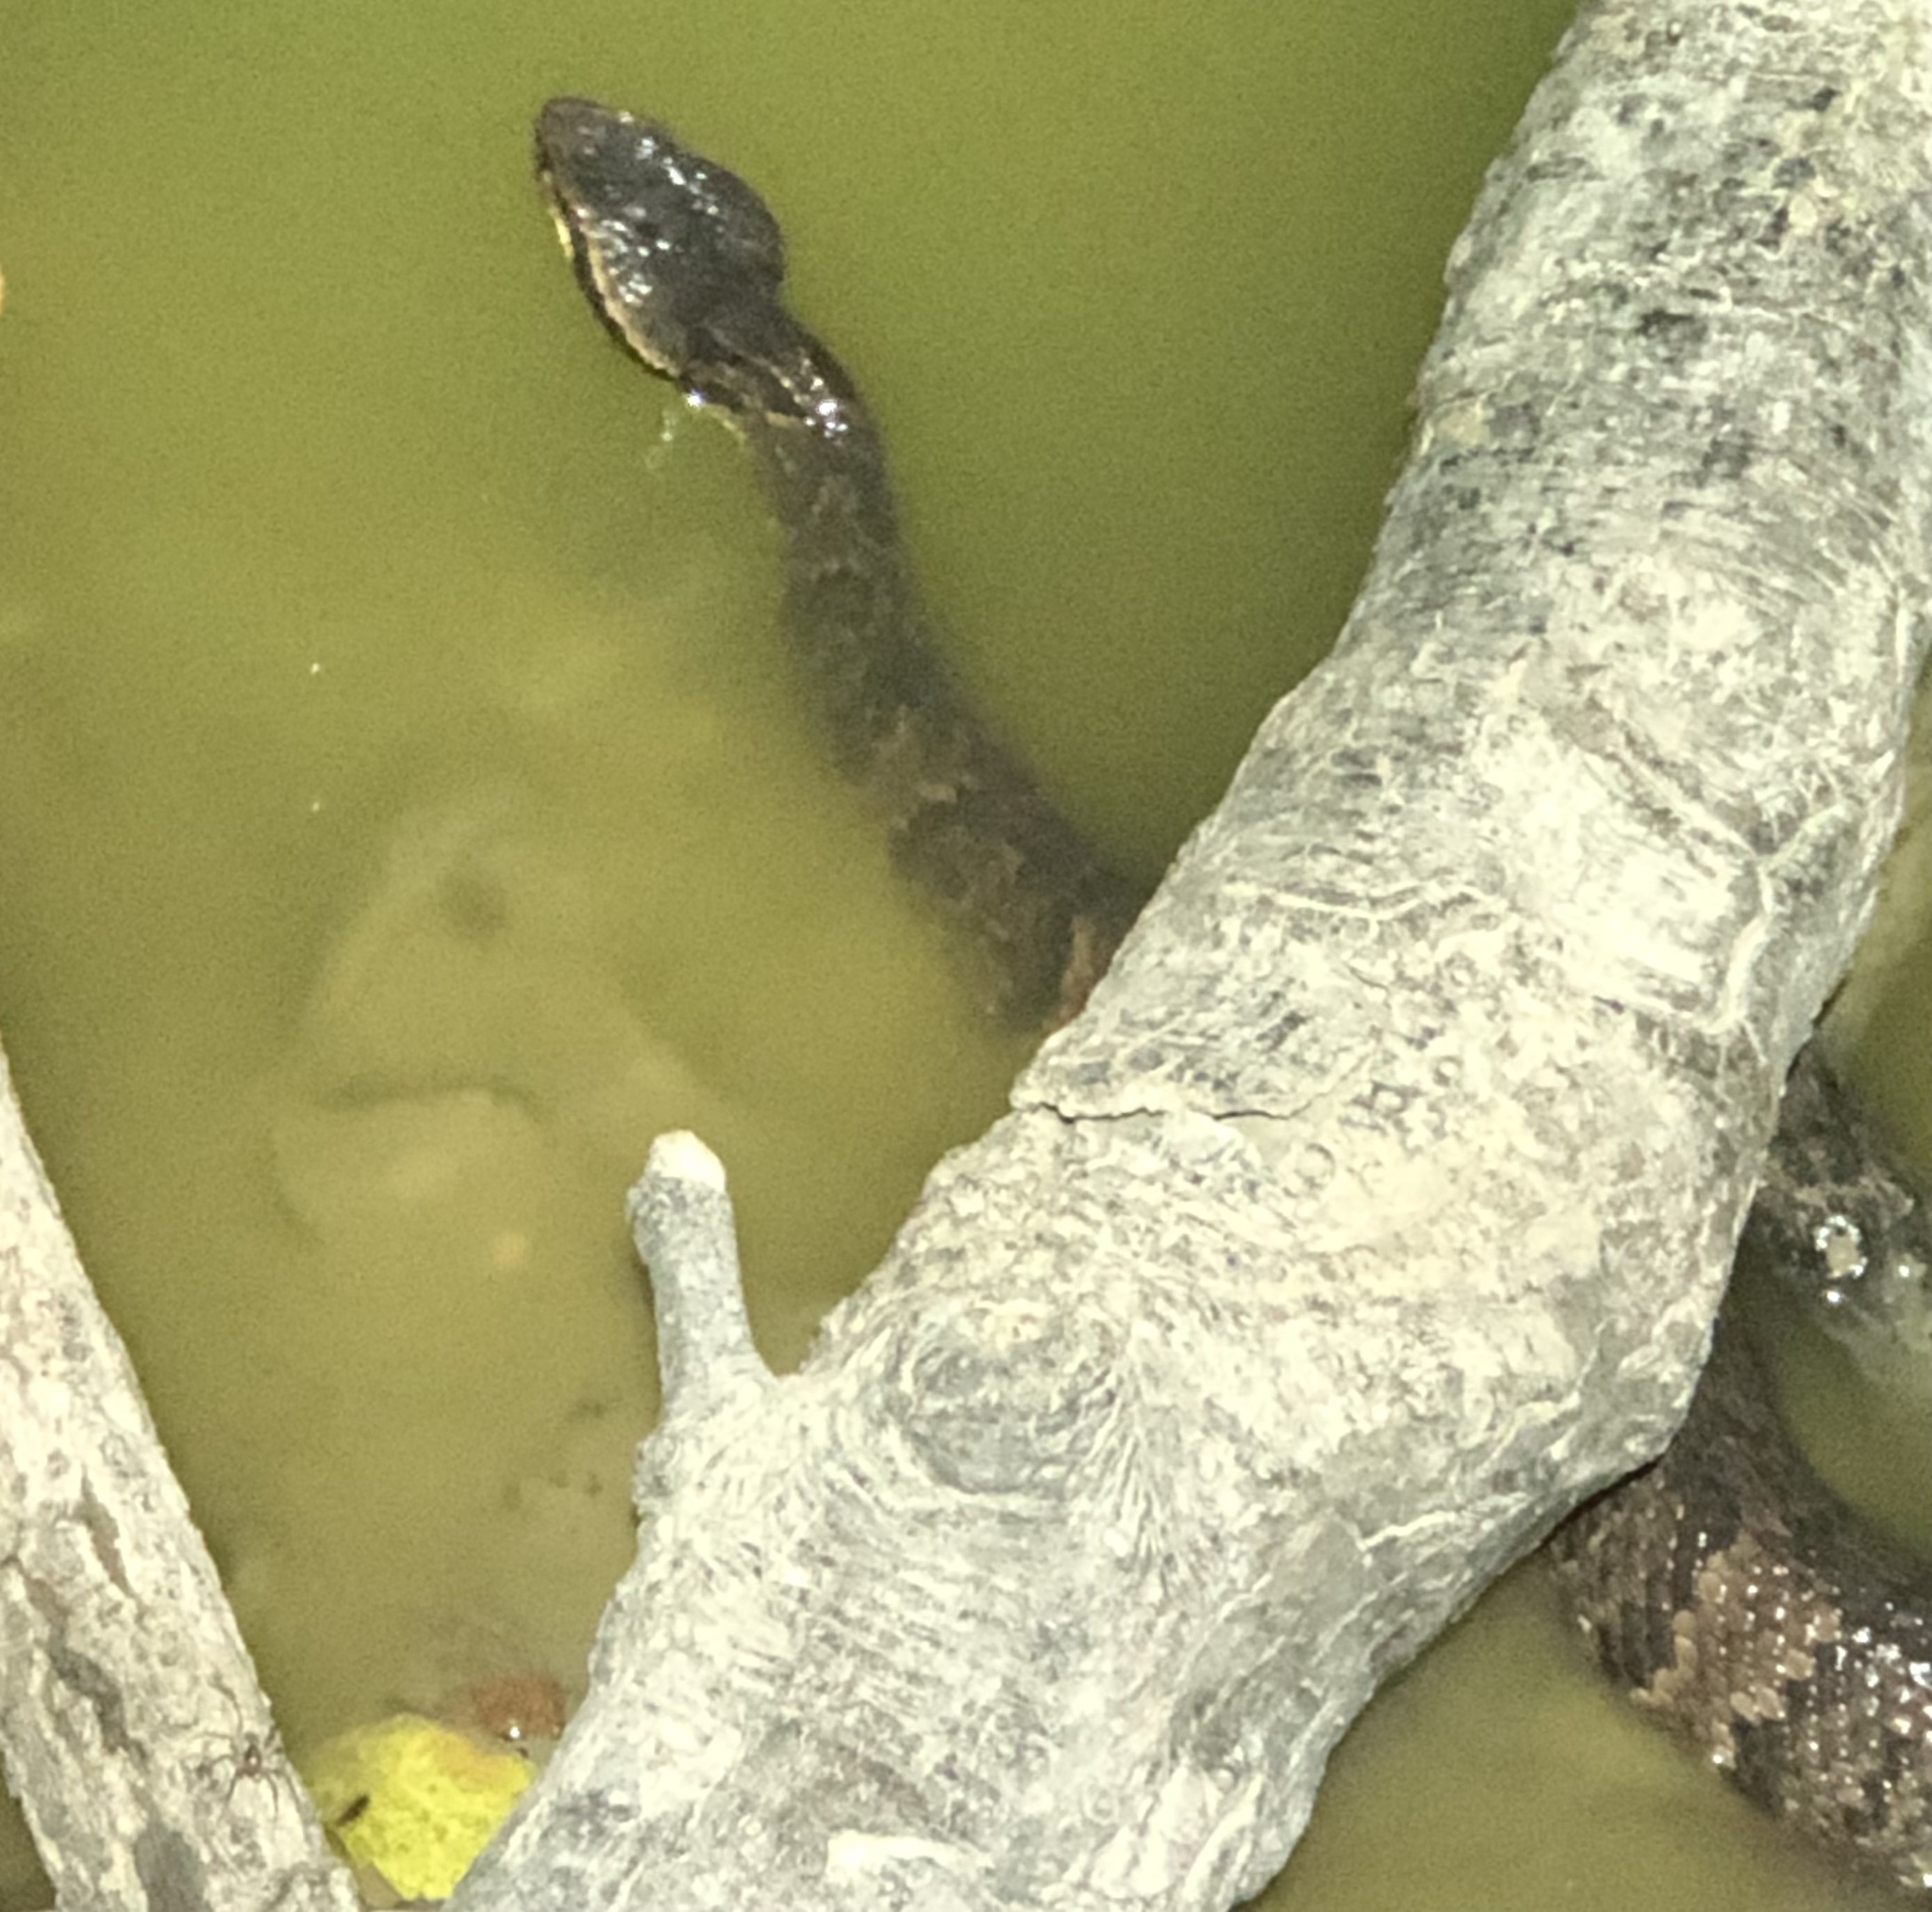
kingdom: Animalia
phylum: Chordata
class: Squamata
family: Viperidae
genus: Agkistrodon
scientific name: Agkistrodon piscivorus
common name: Cottonmouth
